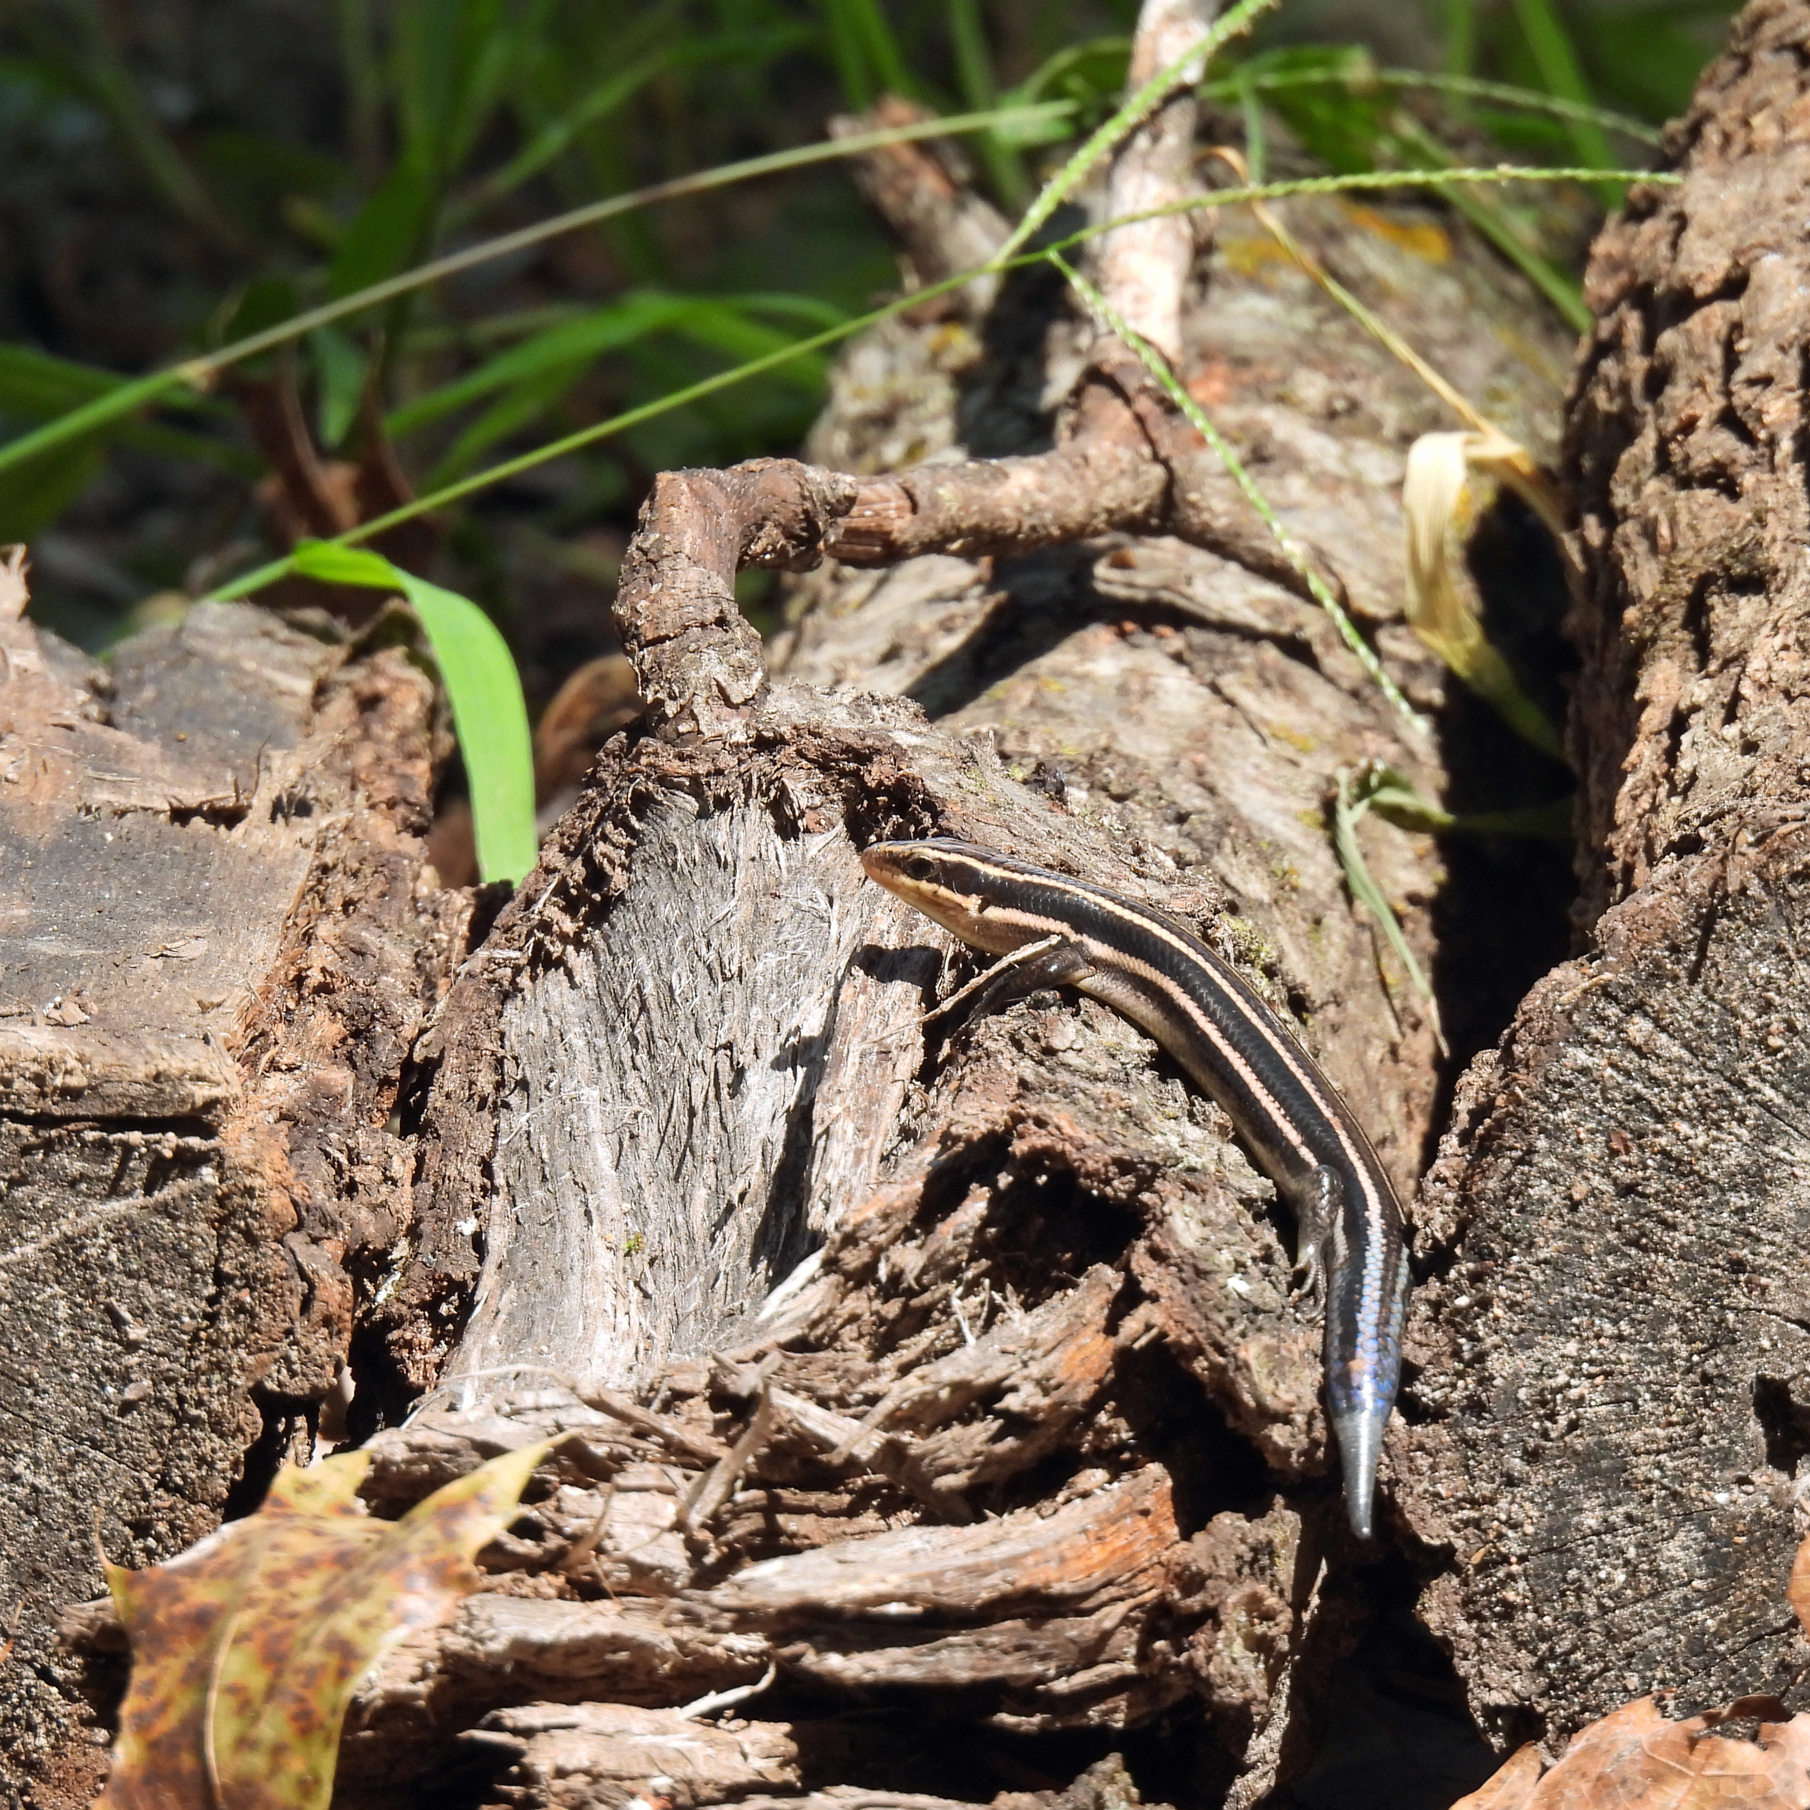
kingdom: Animalia
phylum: Chordata
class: Squamata
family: Scincidae
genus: Plestiodon
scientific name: Plestiodon fasciatus
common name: Five-lined skink
